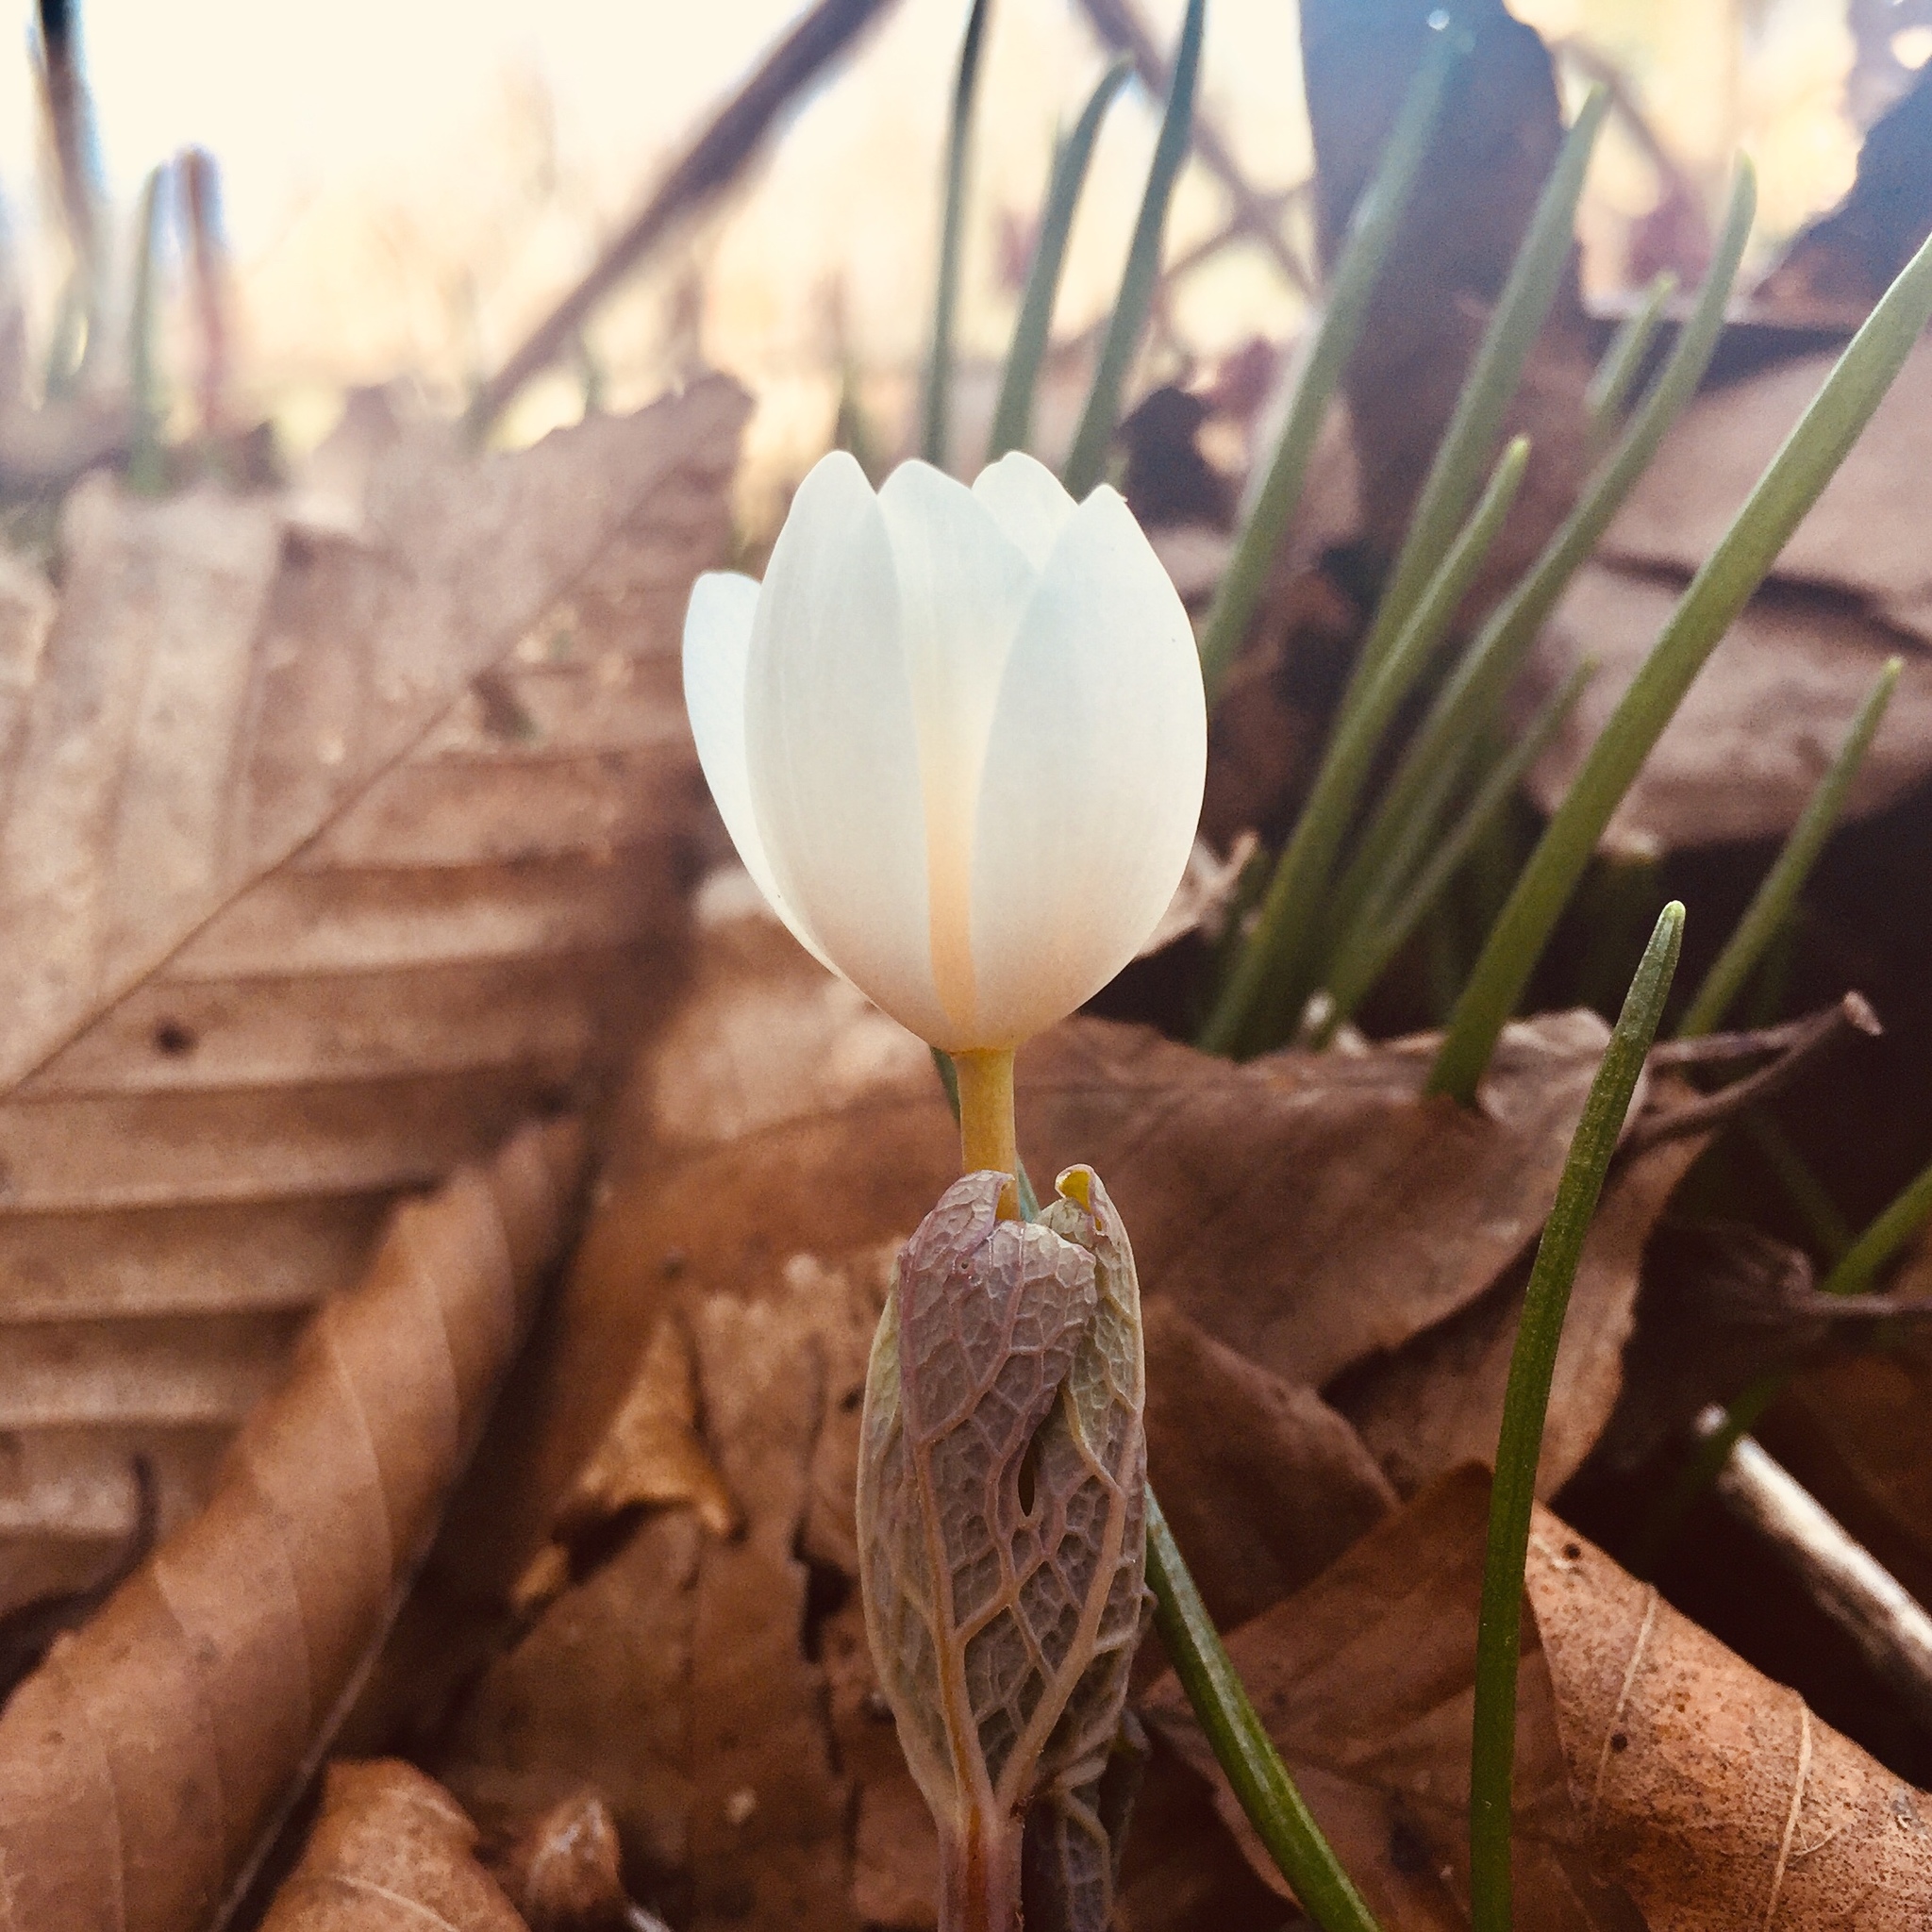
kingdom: Plantae
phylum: Tracheophyta
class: Magnoliopsida
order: Ranunculales
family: Papaveraceae
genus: Sanguinaria
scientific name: Sanguinaria canadensis
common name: Bloodroot
